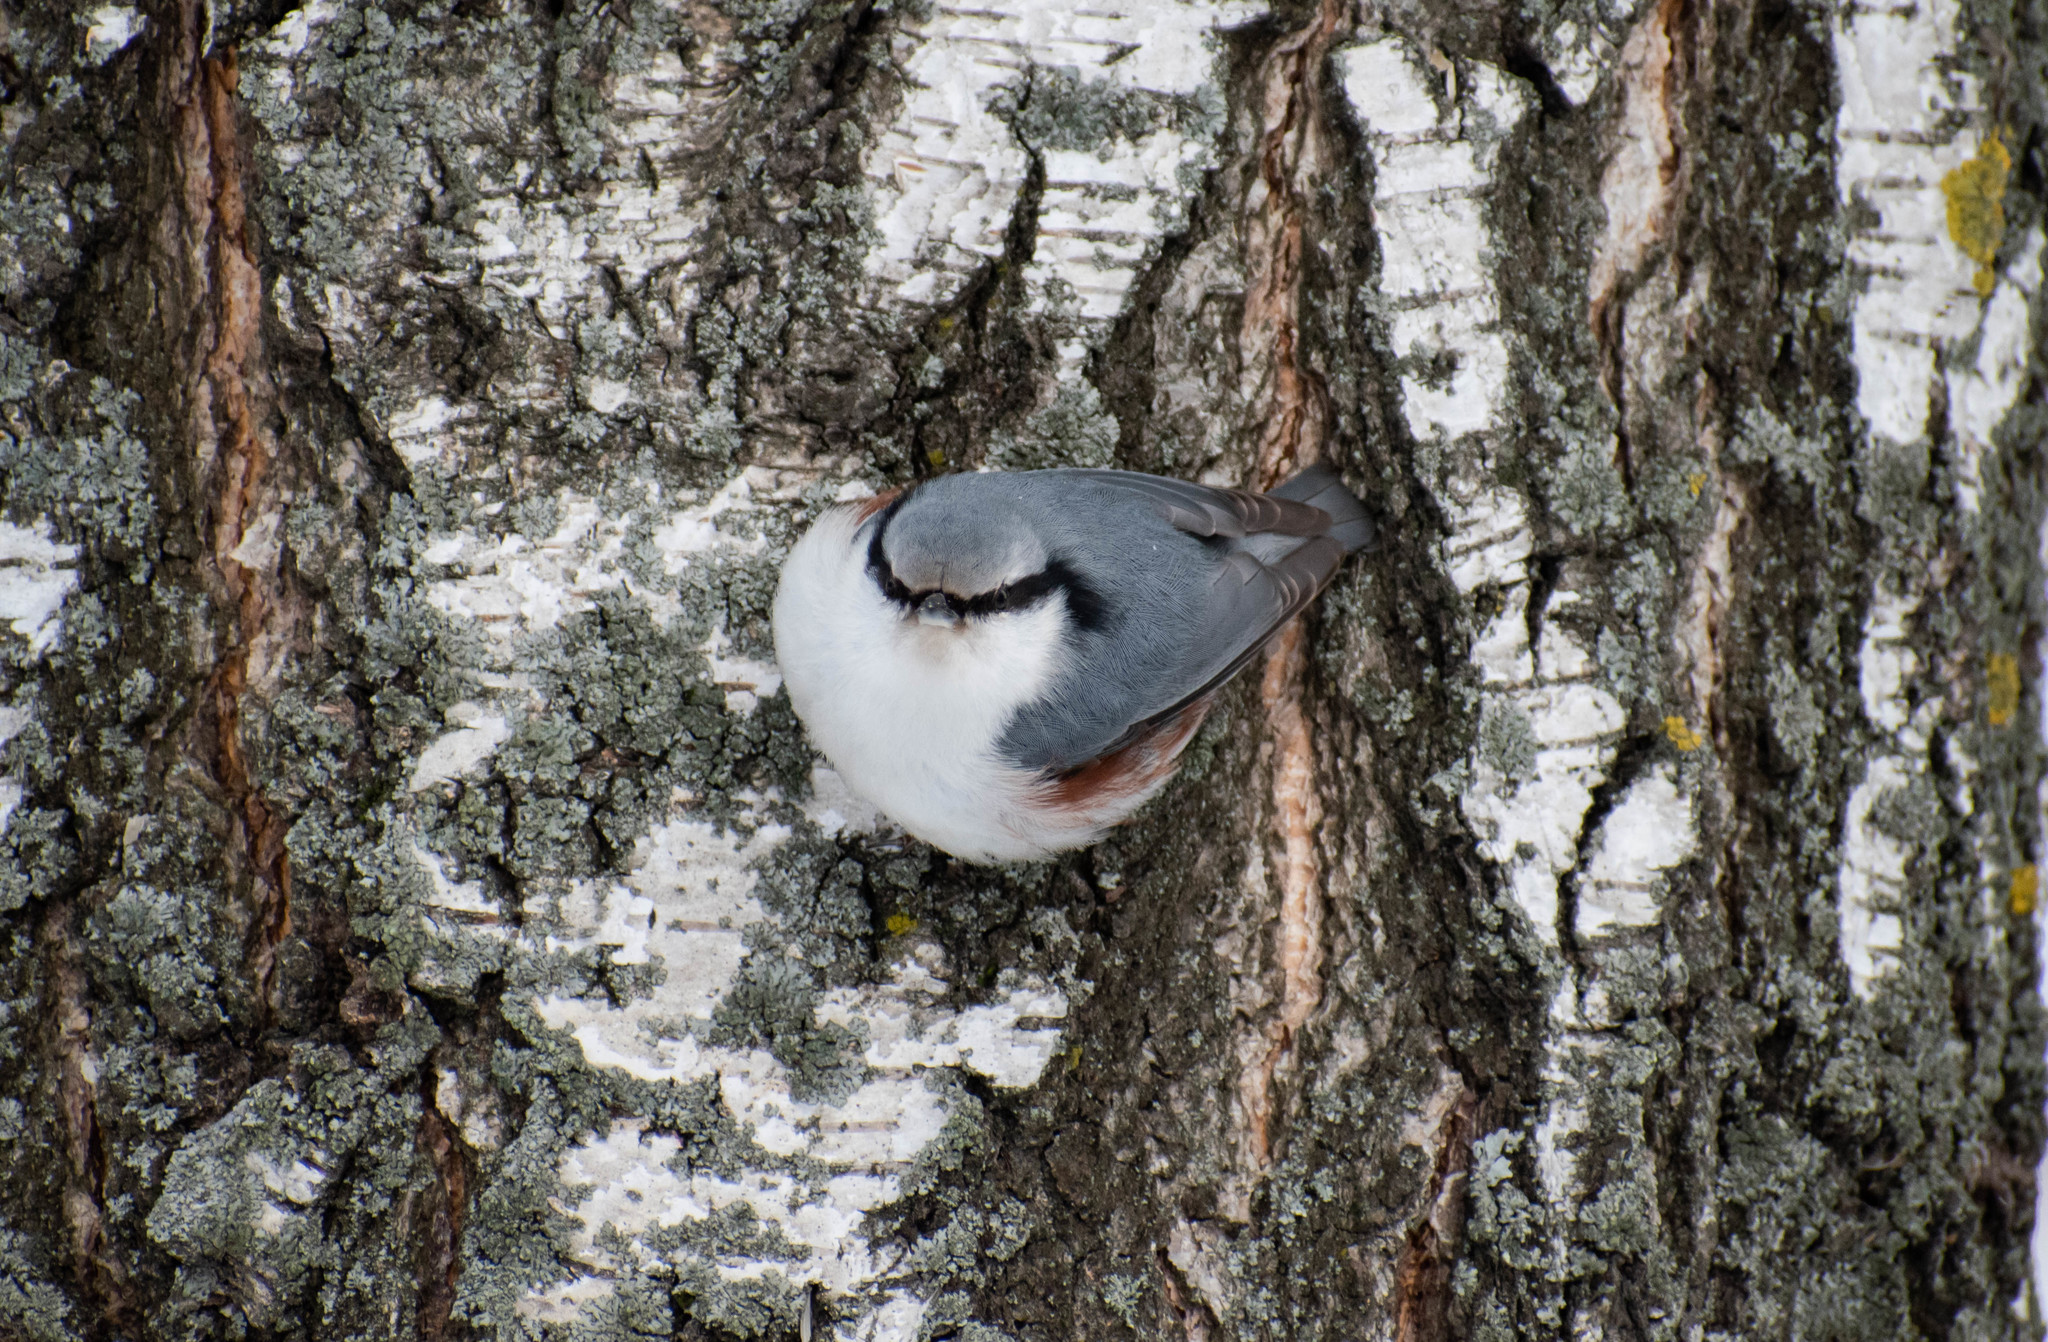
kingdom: Animalia
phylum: Chordata
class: Aves
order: Passeriformes
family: Sittidae
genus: Sitta
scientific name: Sitta europaea
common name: Eurasian nuthatch
